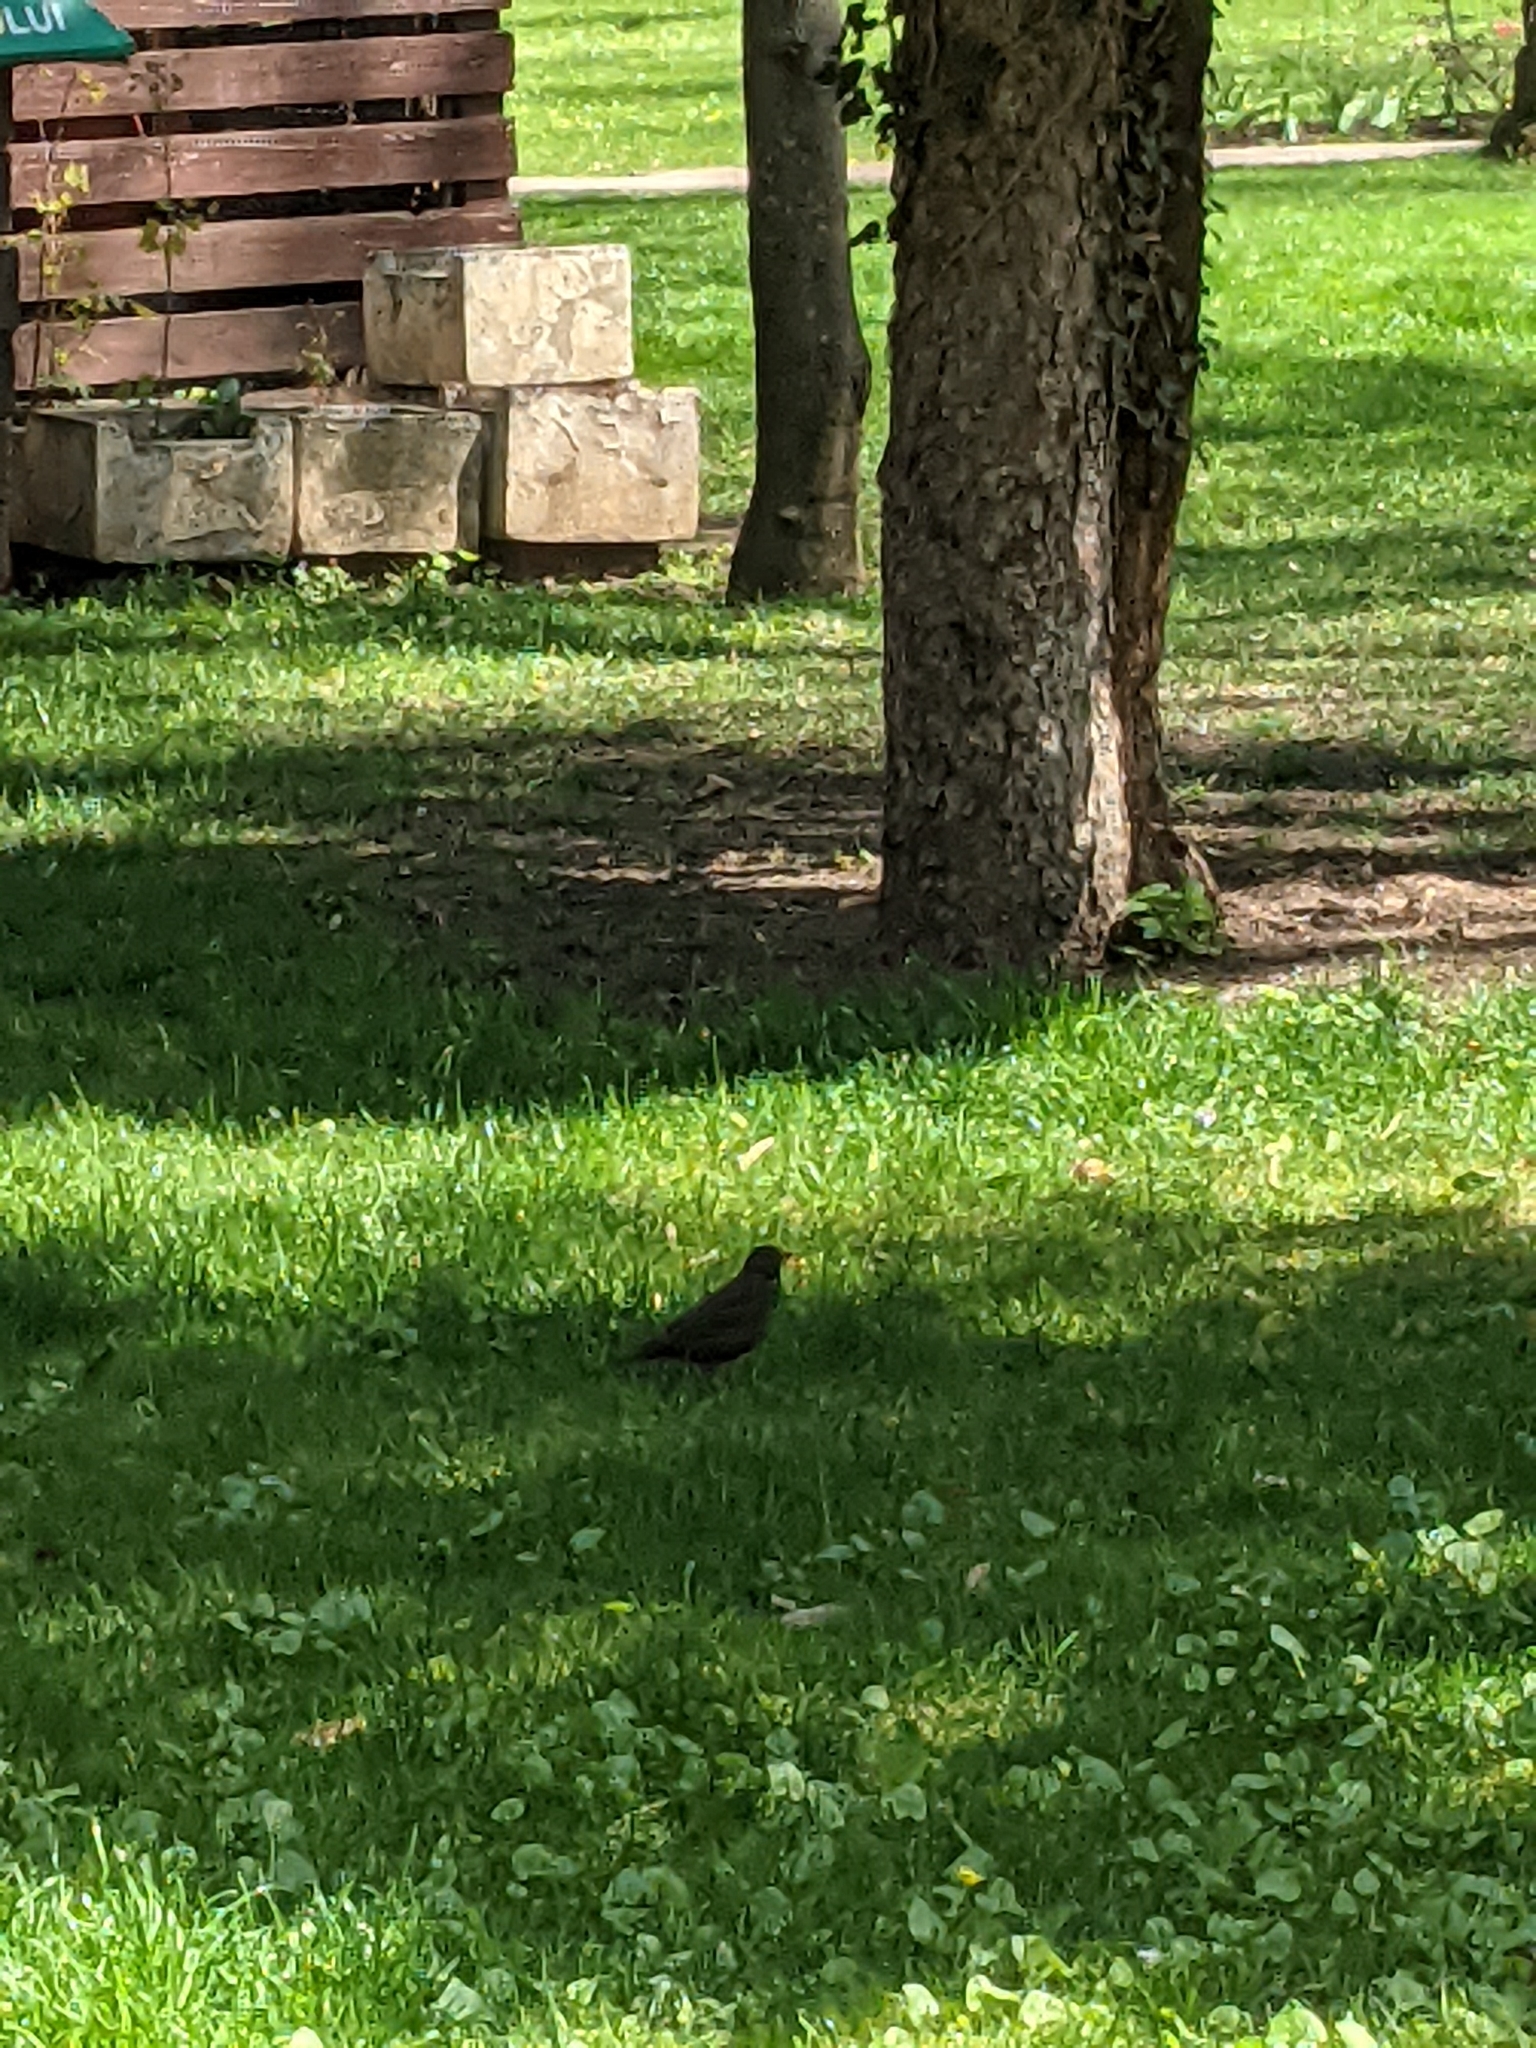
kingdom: Animalia
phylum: Chordata
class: Aves
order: Passeriformes
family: Turdidae
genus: Turdus
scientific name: Turdus merula
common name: Common blackbird
